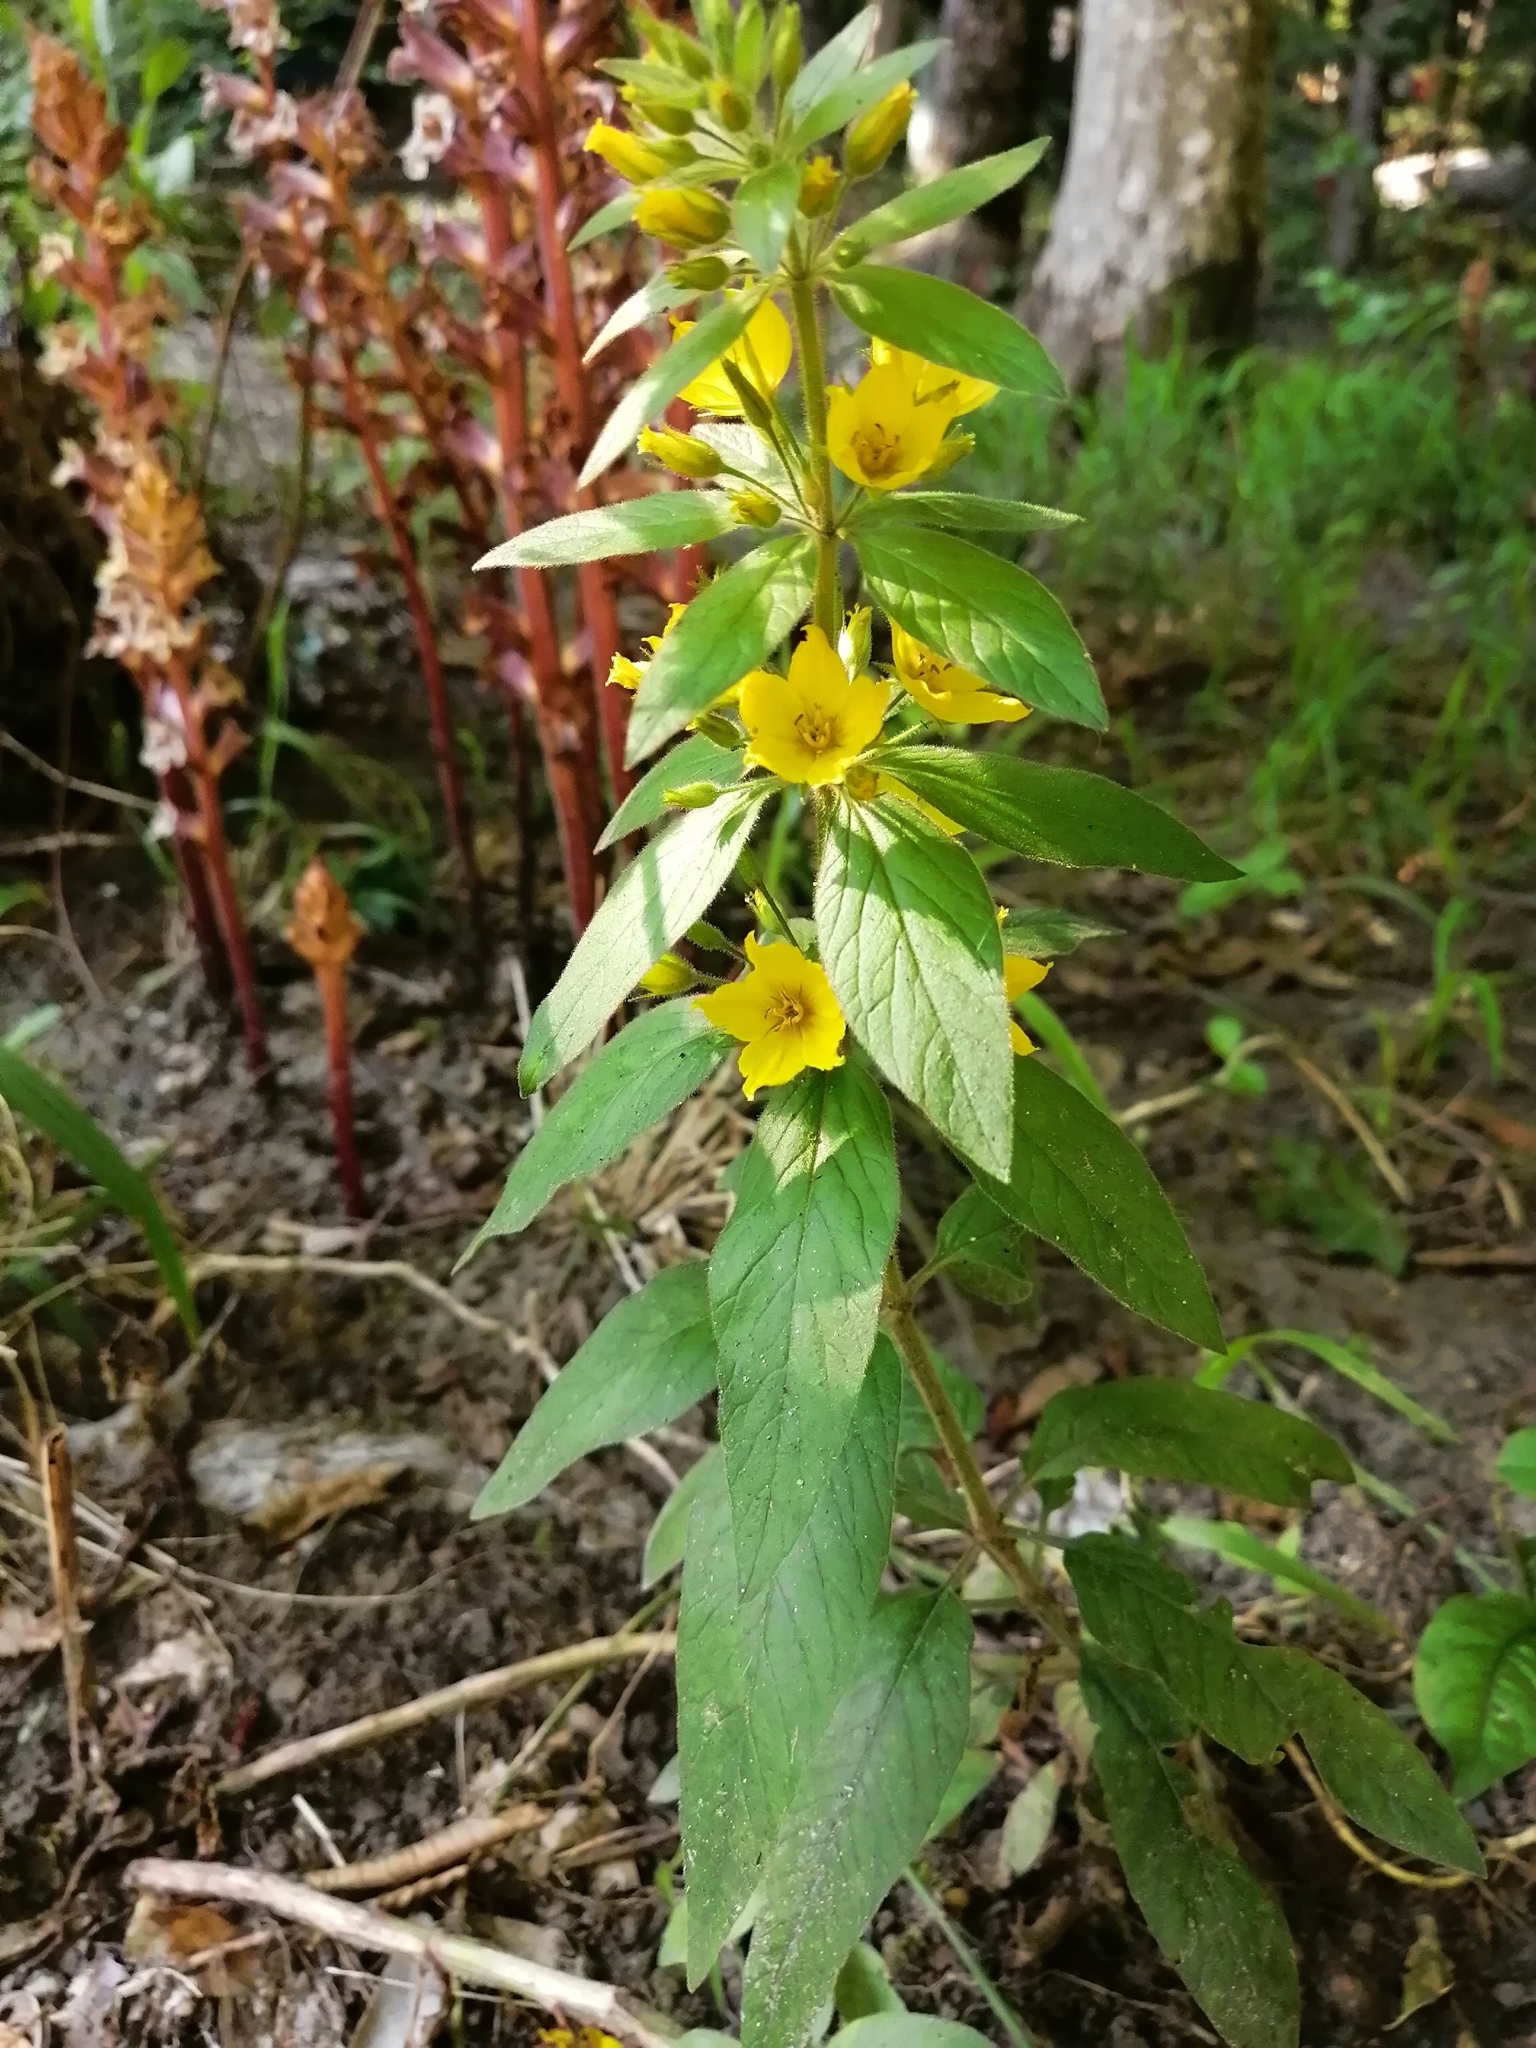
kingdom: Plantae
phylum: Tracheophyta
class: Magnoliopsida
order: Ericales
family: Primulaceae
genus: Lysimachia
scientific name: Lysimachia verticillaris
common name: Yellow loosestrife
